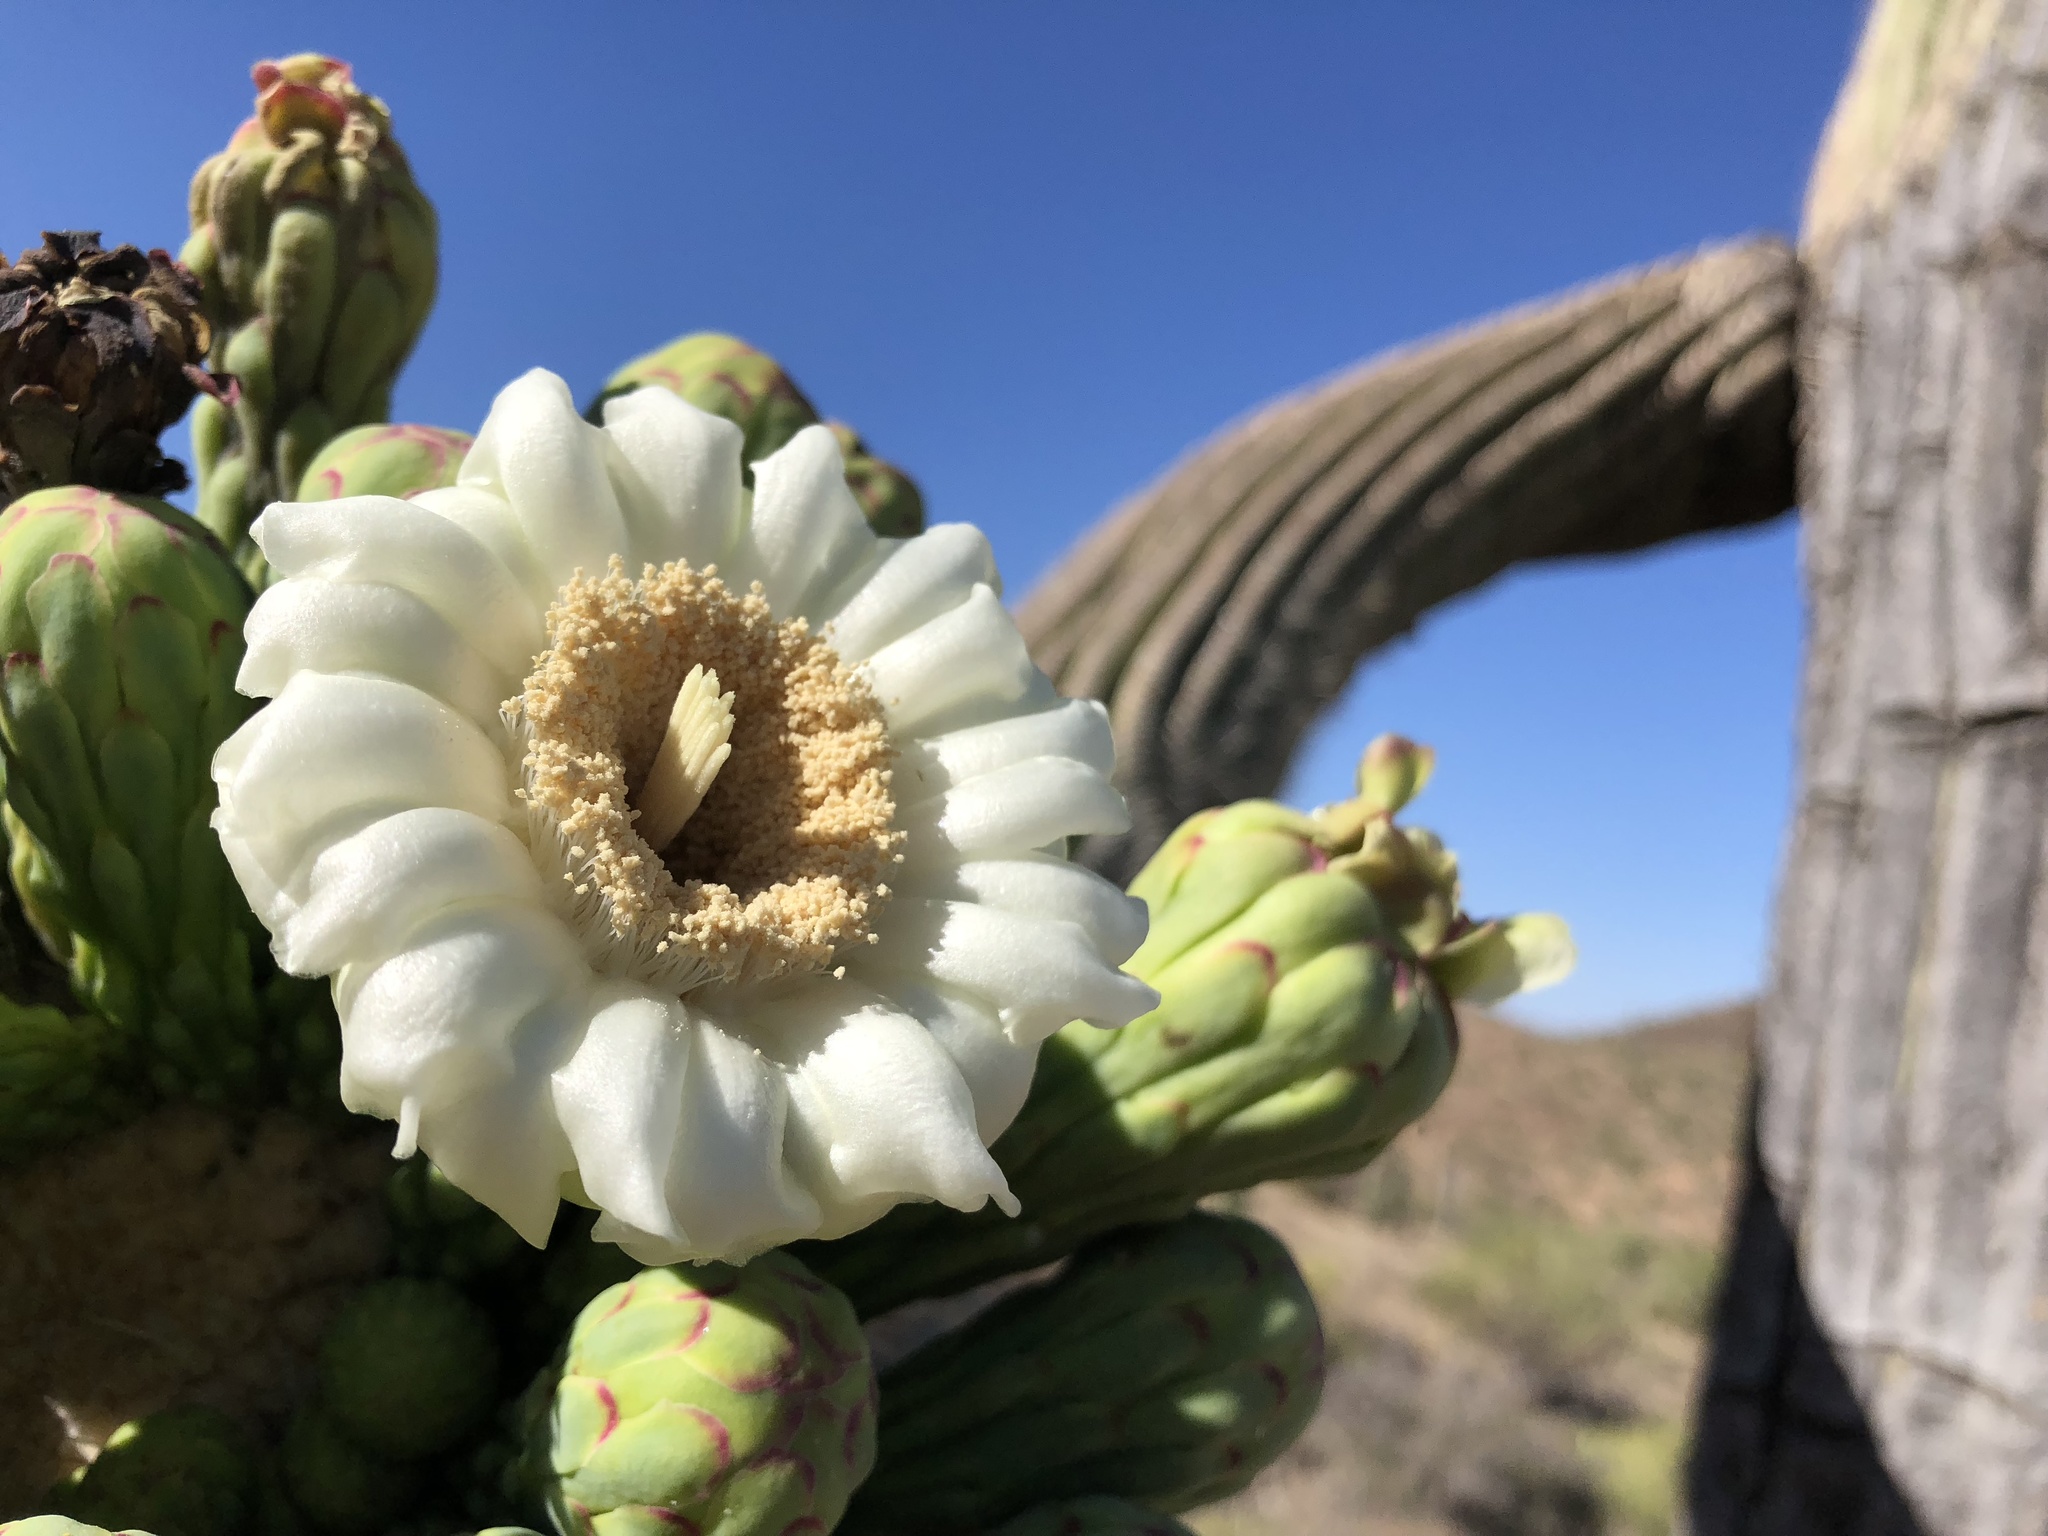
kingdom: Plantae
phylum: Tracheophyta
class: Magnoliopsida
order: Caryophyllales
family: Cactaceae
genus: Carnegiea
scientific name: Carnegiea gigantea
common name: Saguaro
